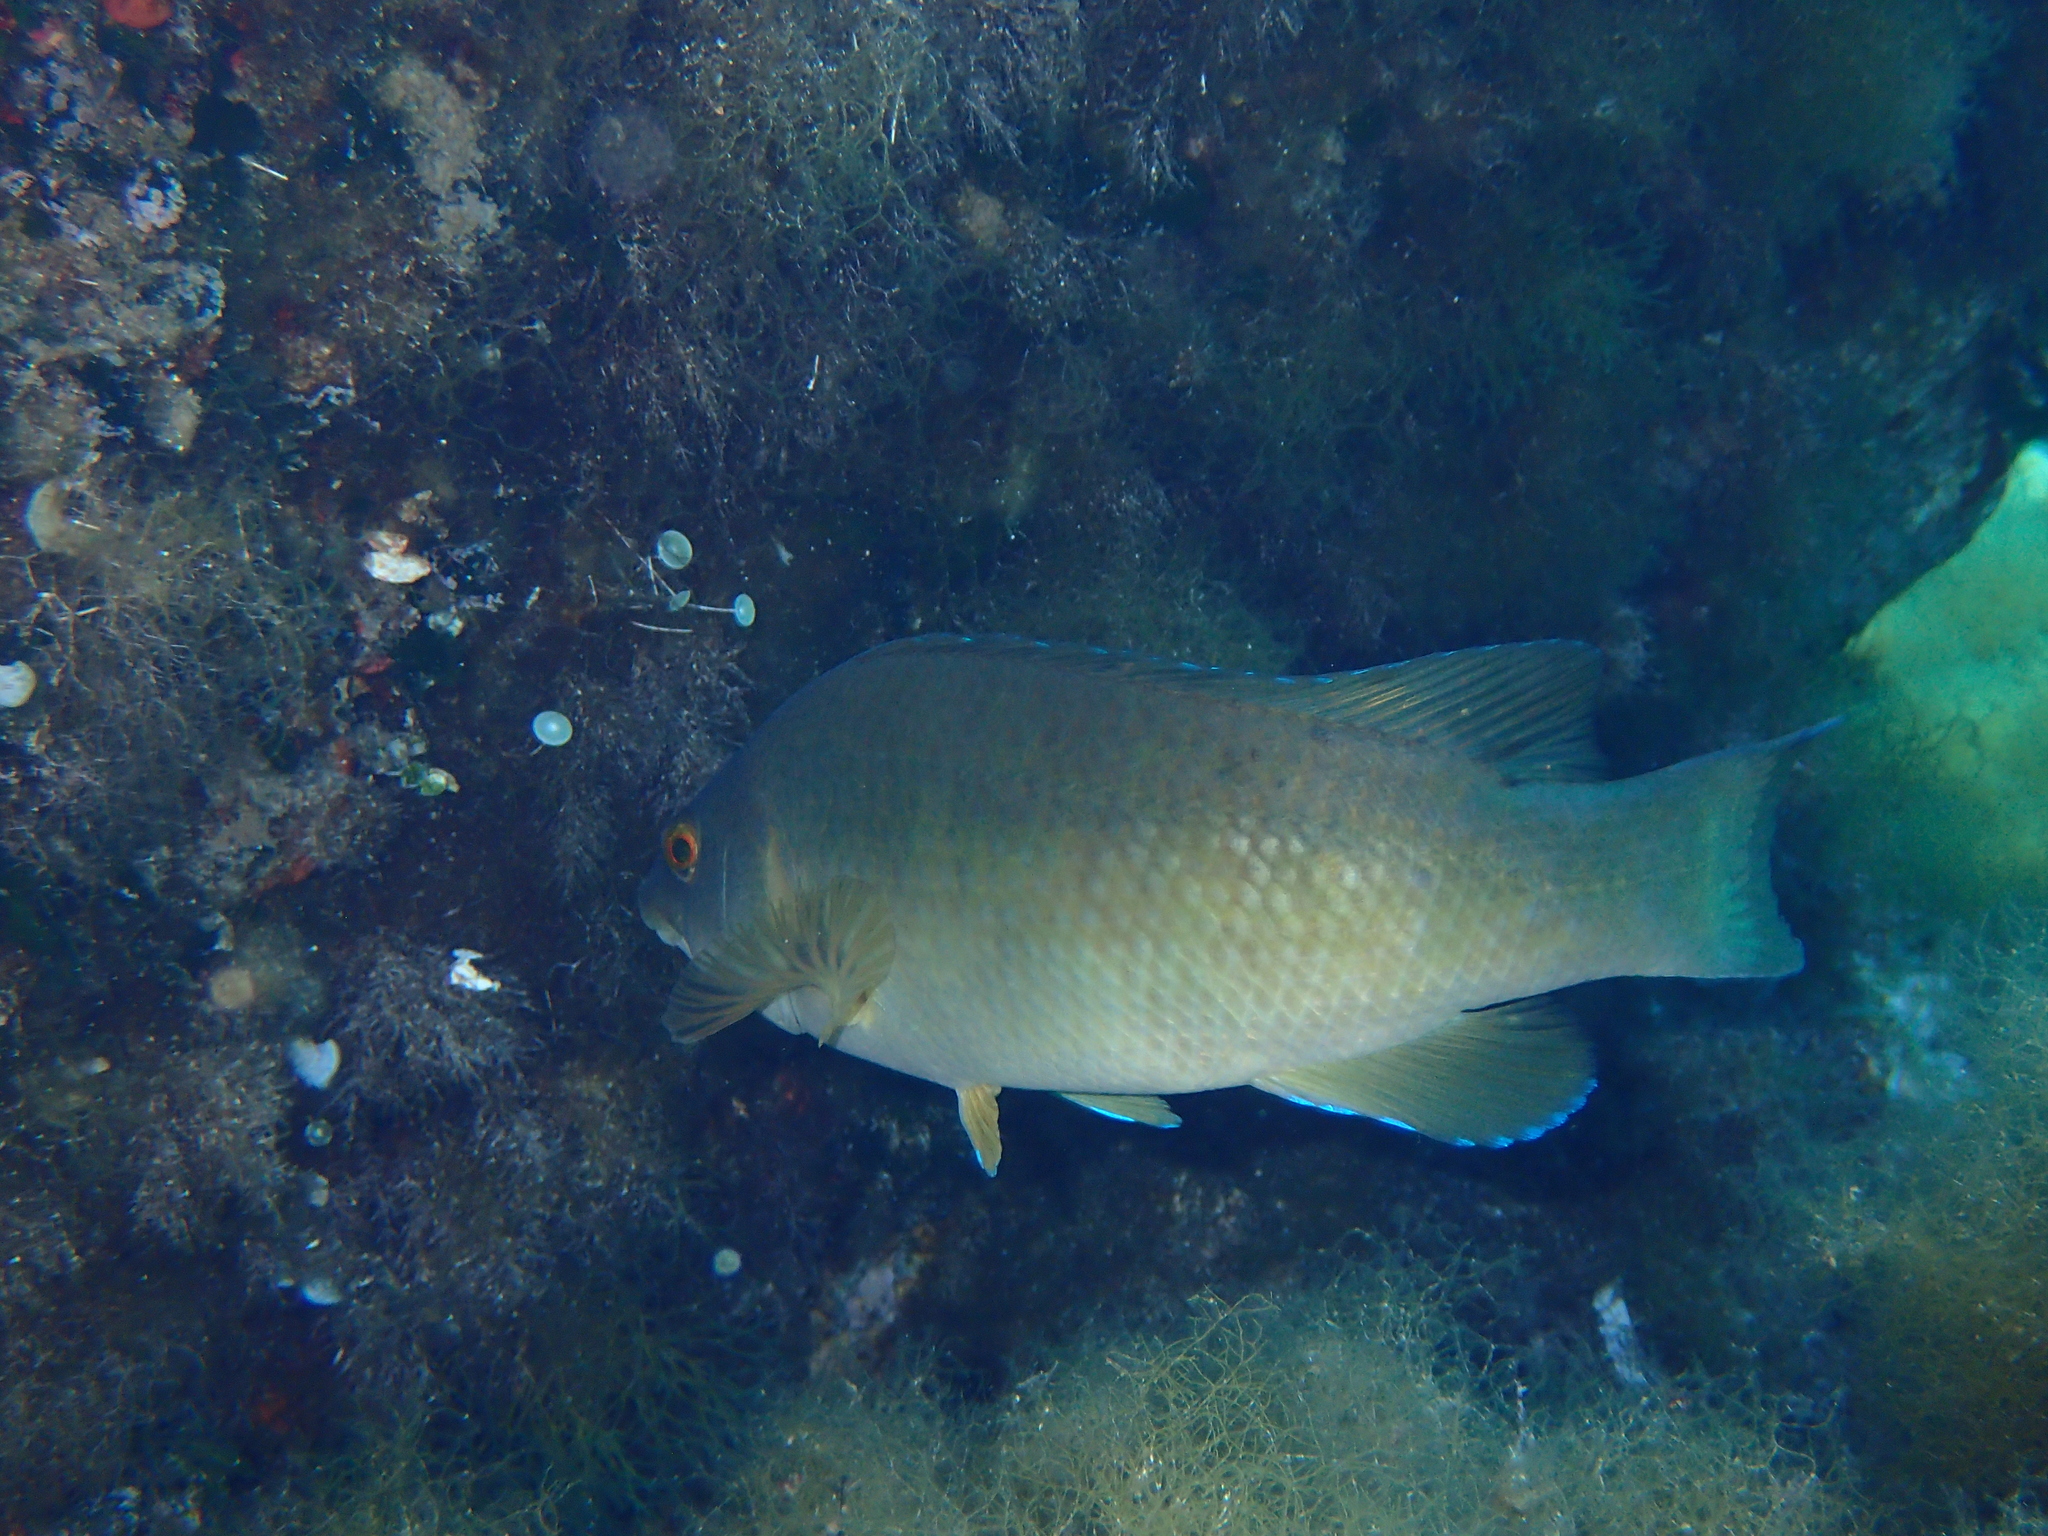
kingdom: Animalia
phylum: Chordata
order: Perciformes
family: Labridae
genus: Labrus
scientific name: Labrus merula
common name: Brown wrasse
